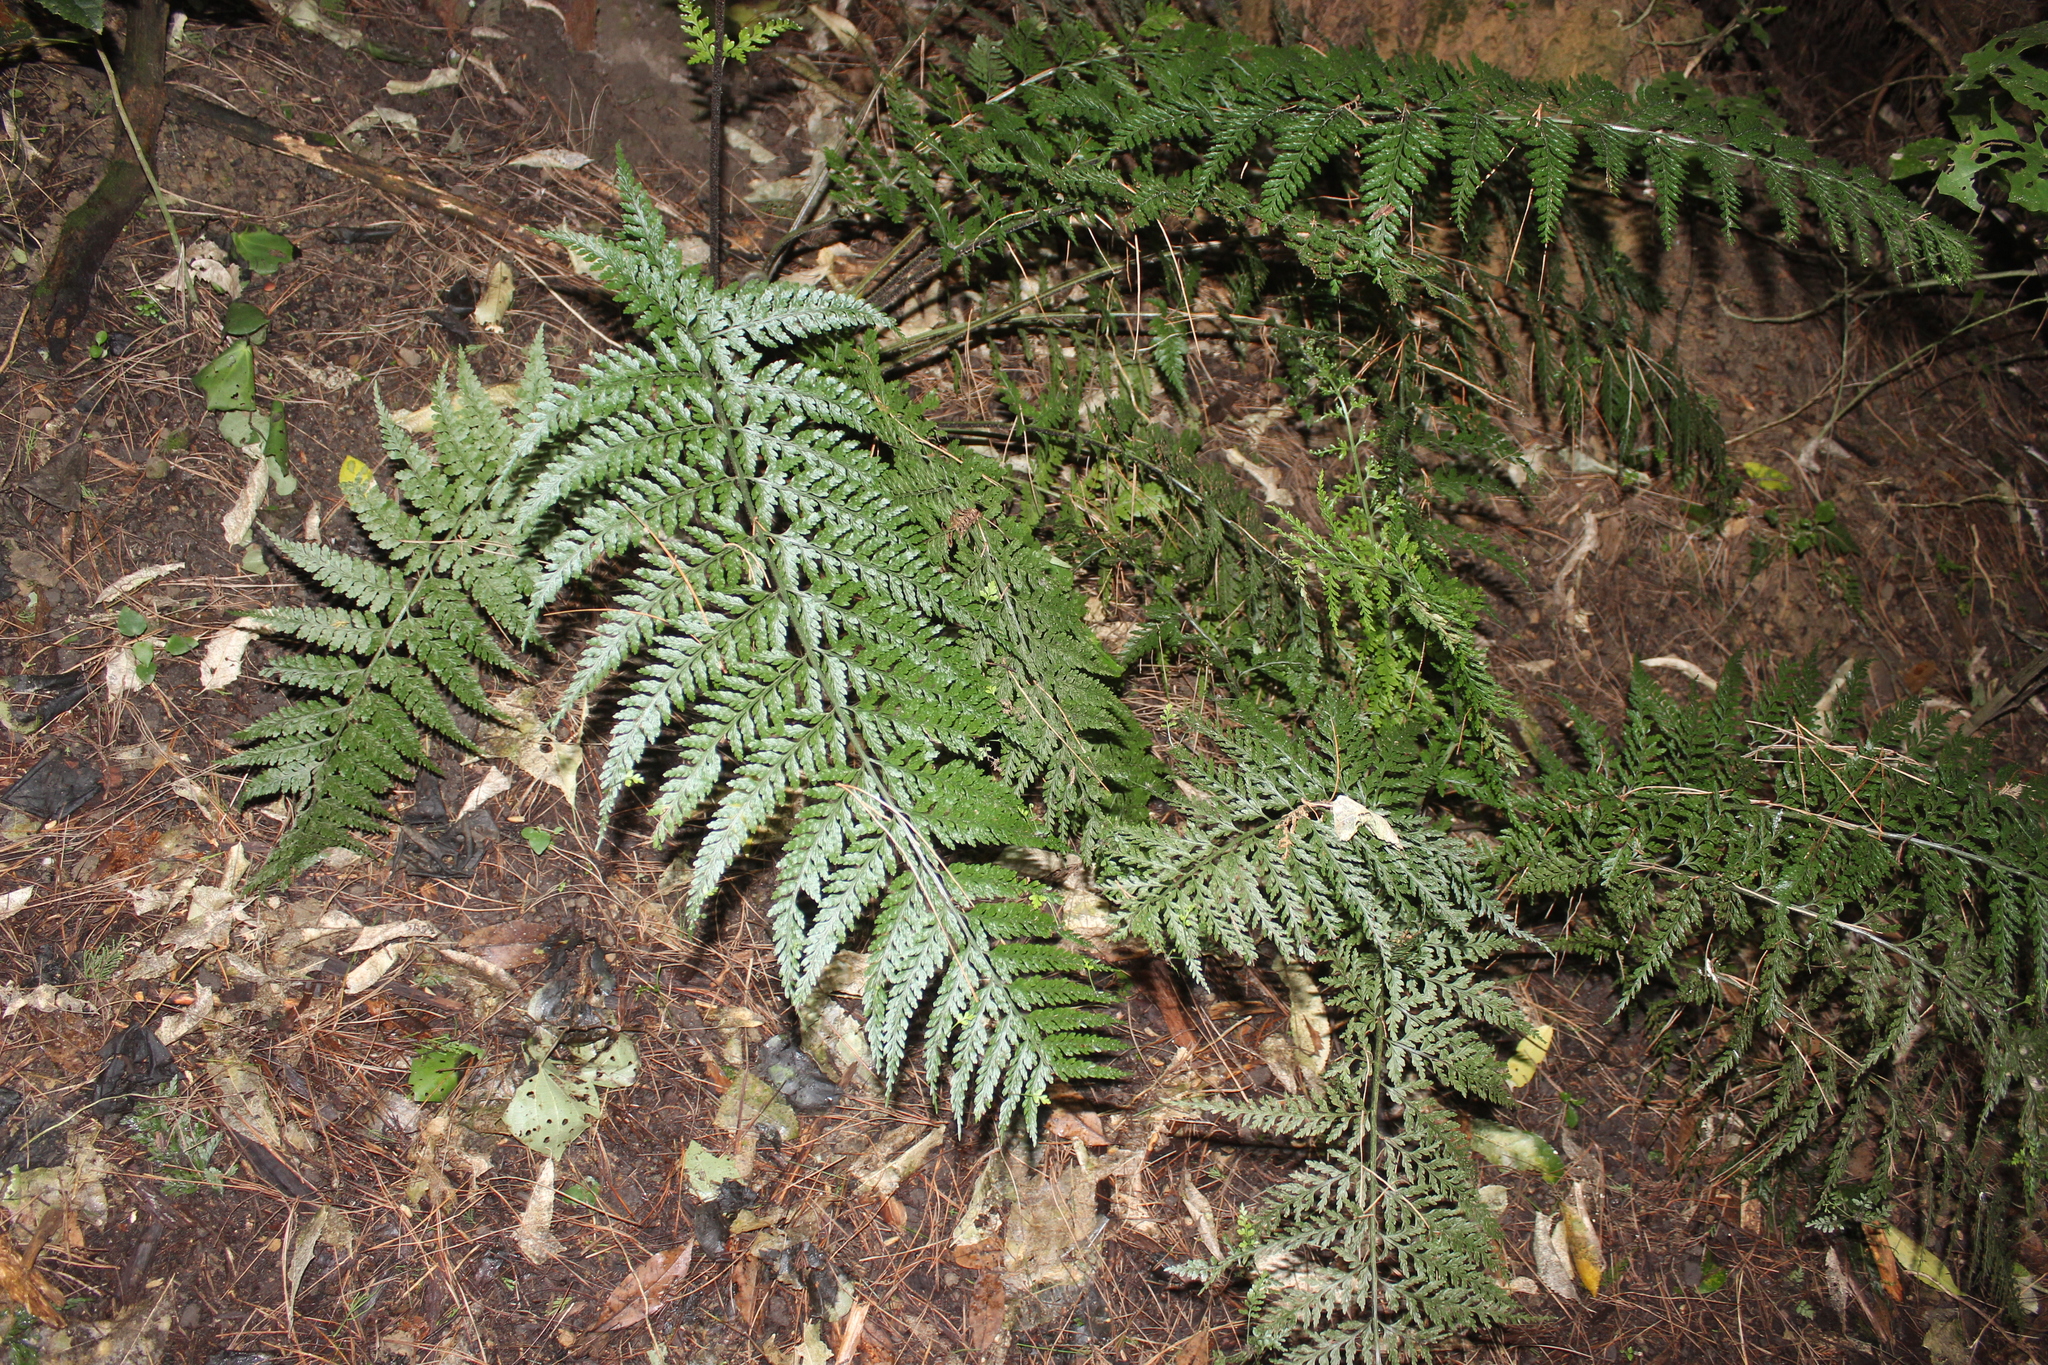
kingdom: Plantae
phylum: Tracheophyta
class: Polypodiopsida
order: Polypodiales
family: Aspleniaceae
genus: Asplenium
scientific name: Asplenium bulbiferum
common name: Mother fern
